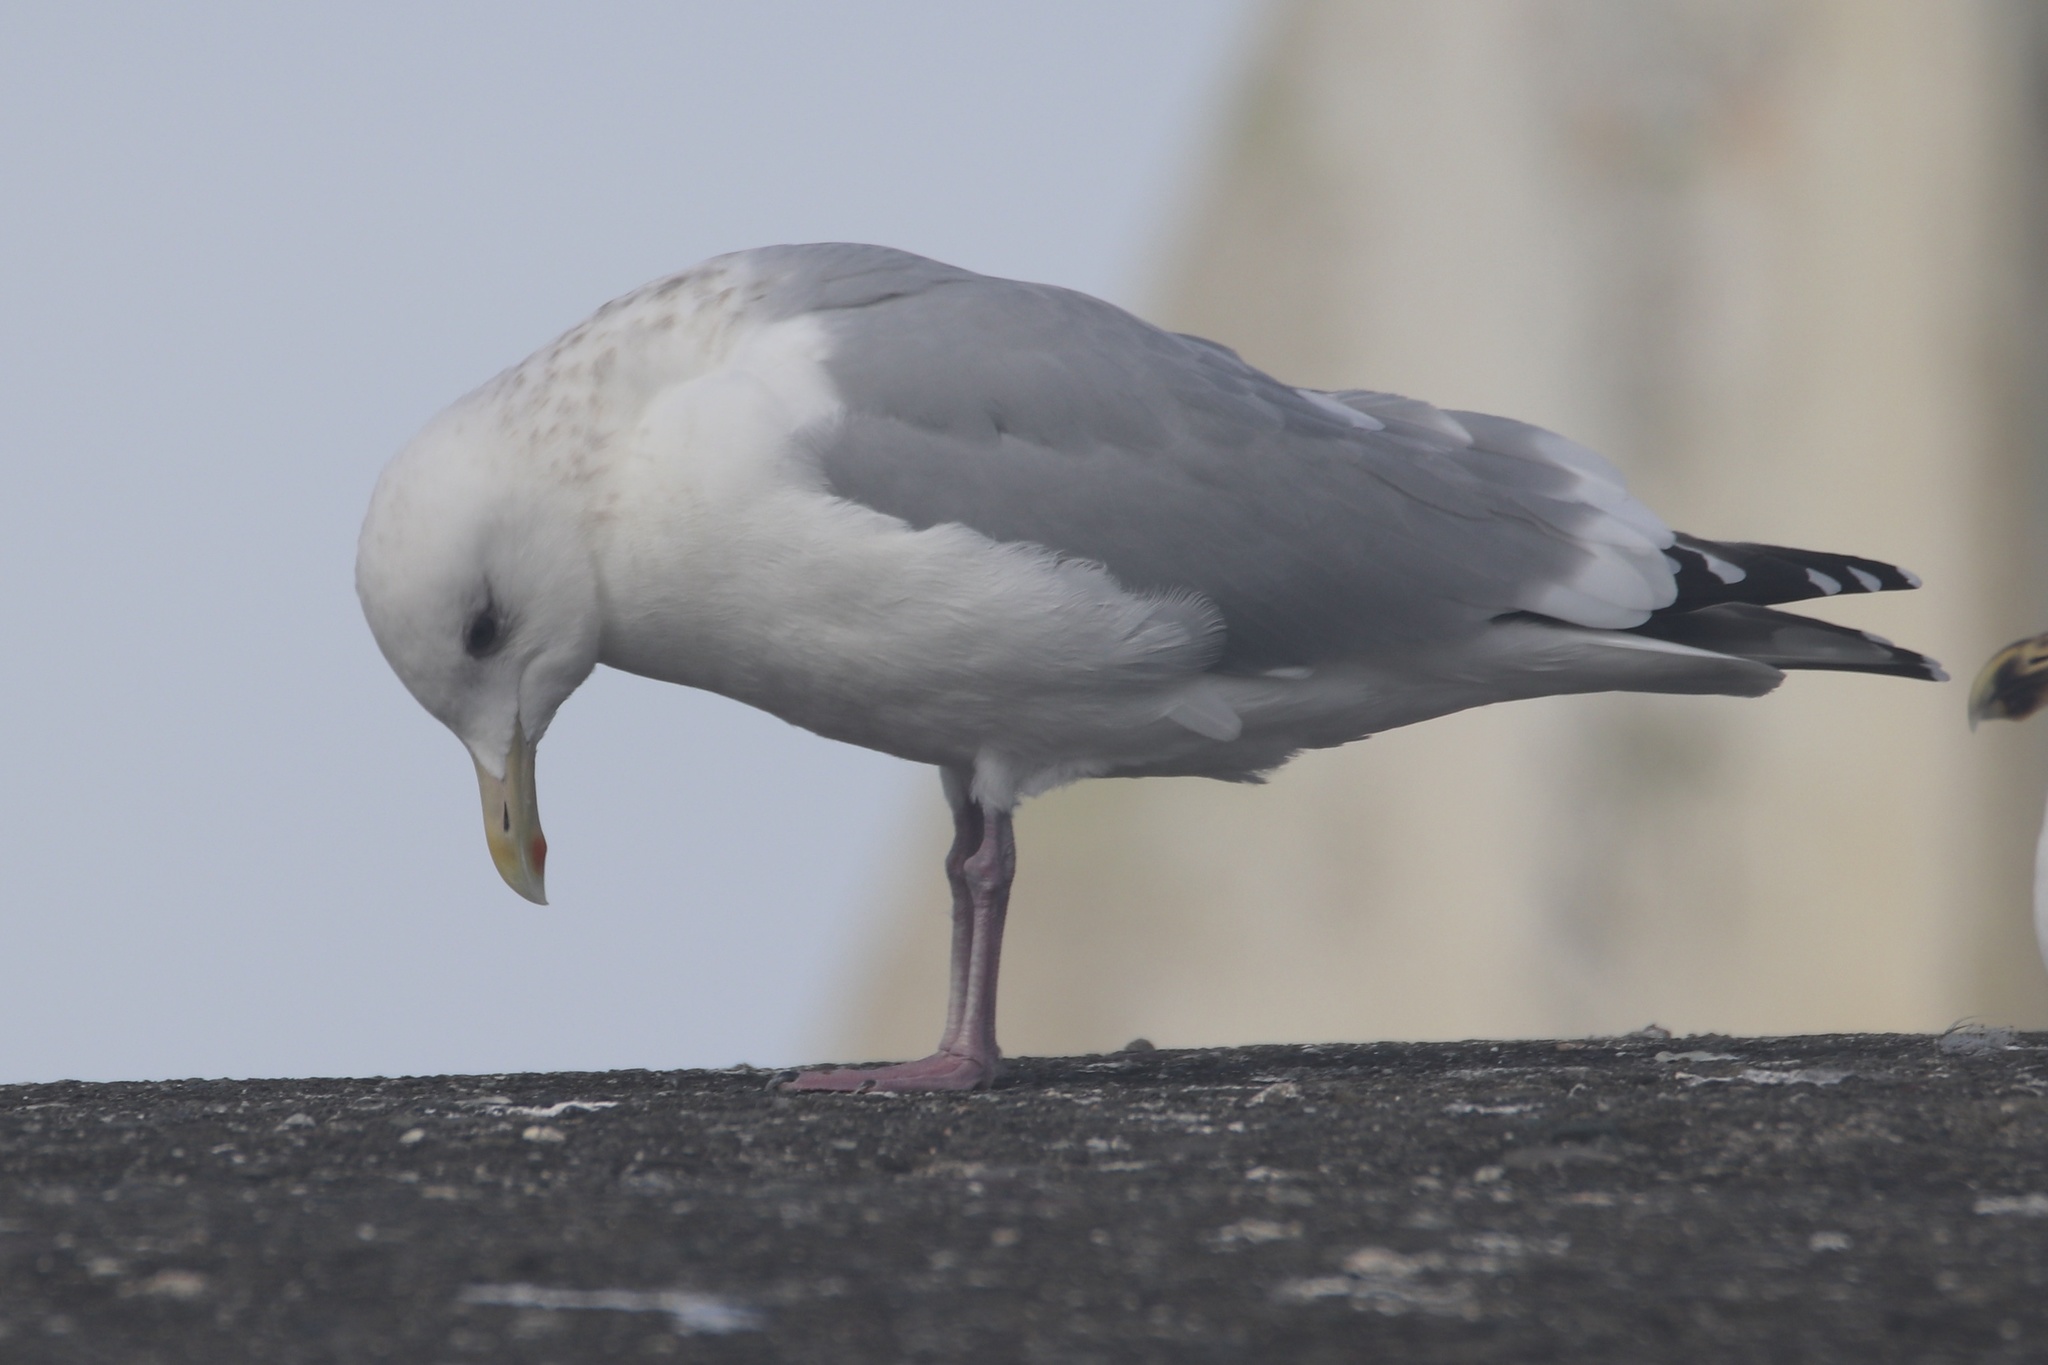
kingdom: Animalia
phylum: Chordata
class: Aves
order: Charadriiformes
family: Laridae
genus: Larus
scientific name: Larus glaucoides
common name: Iceland gull
